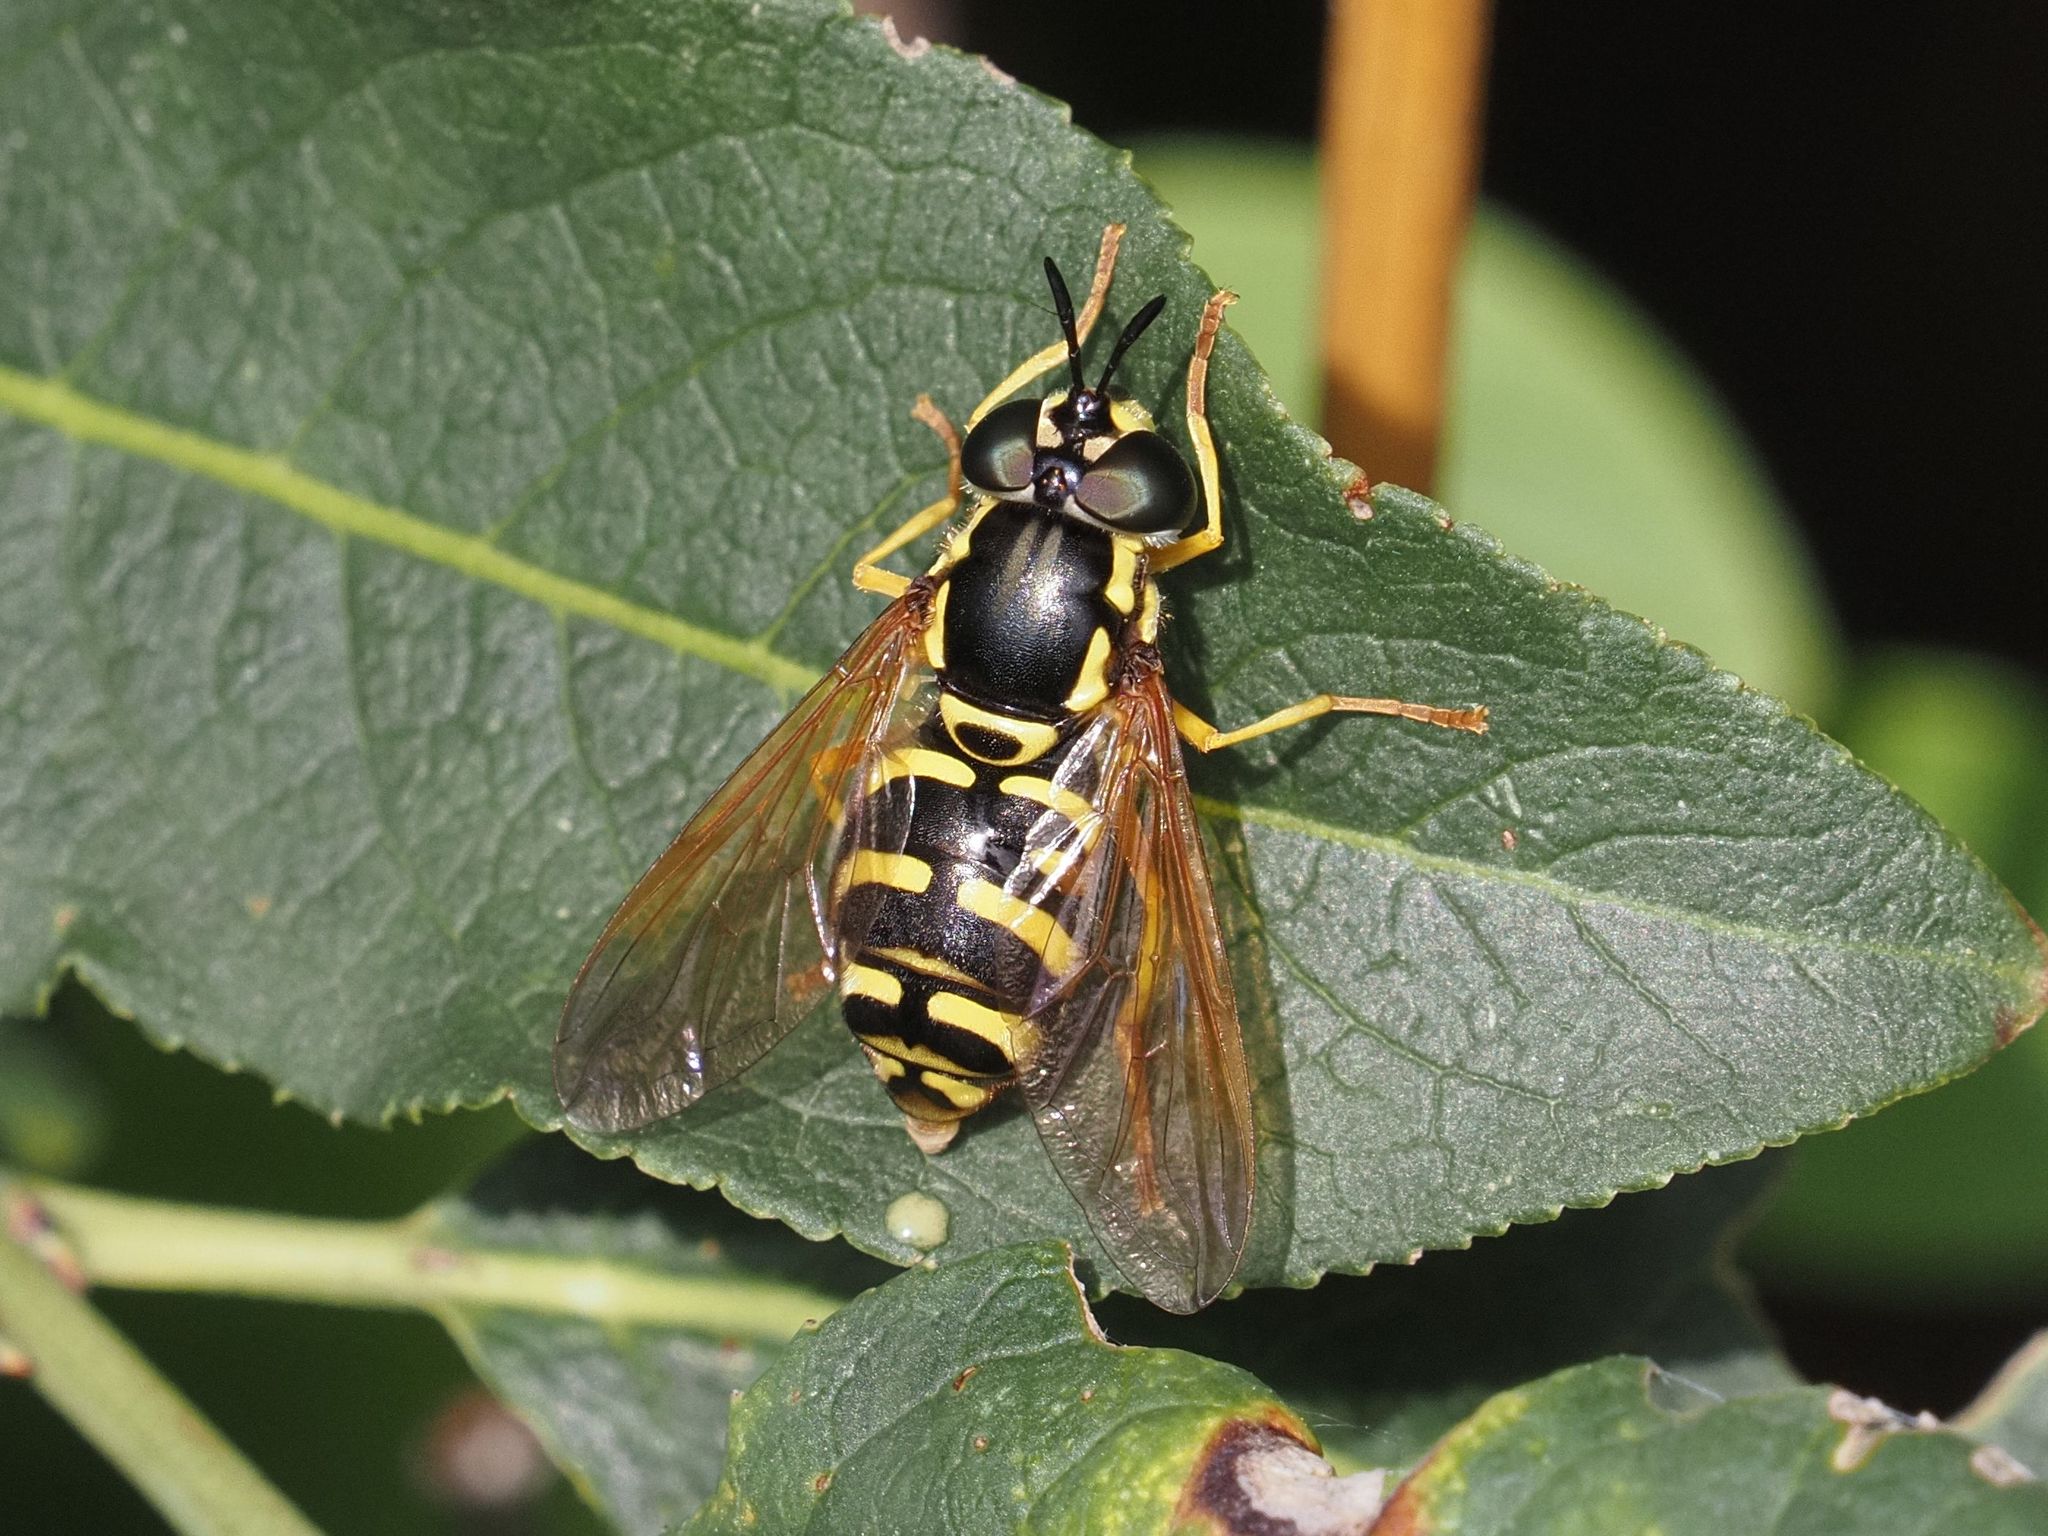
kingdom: Animalia
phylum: Arthropoda
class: Insecta
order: Diptera
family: Syrphidae
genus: Chrysotoxum
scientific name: Chrysotoxum elegans
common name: Zipperback
